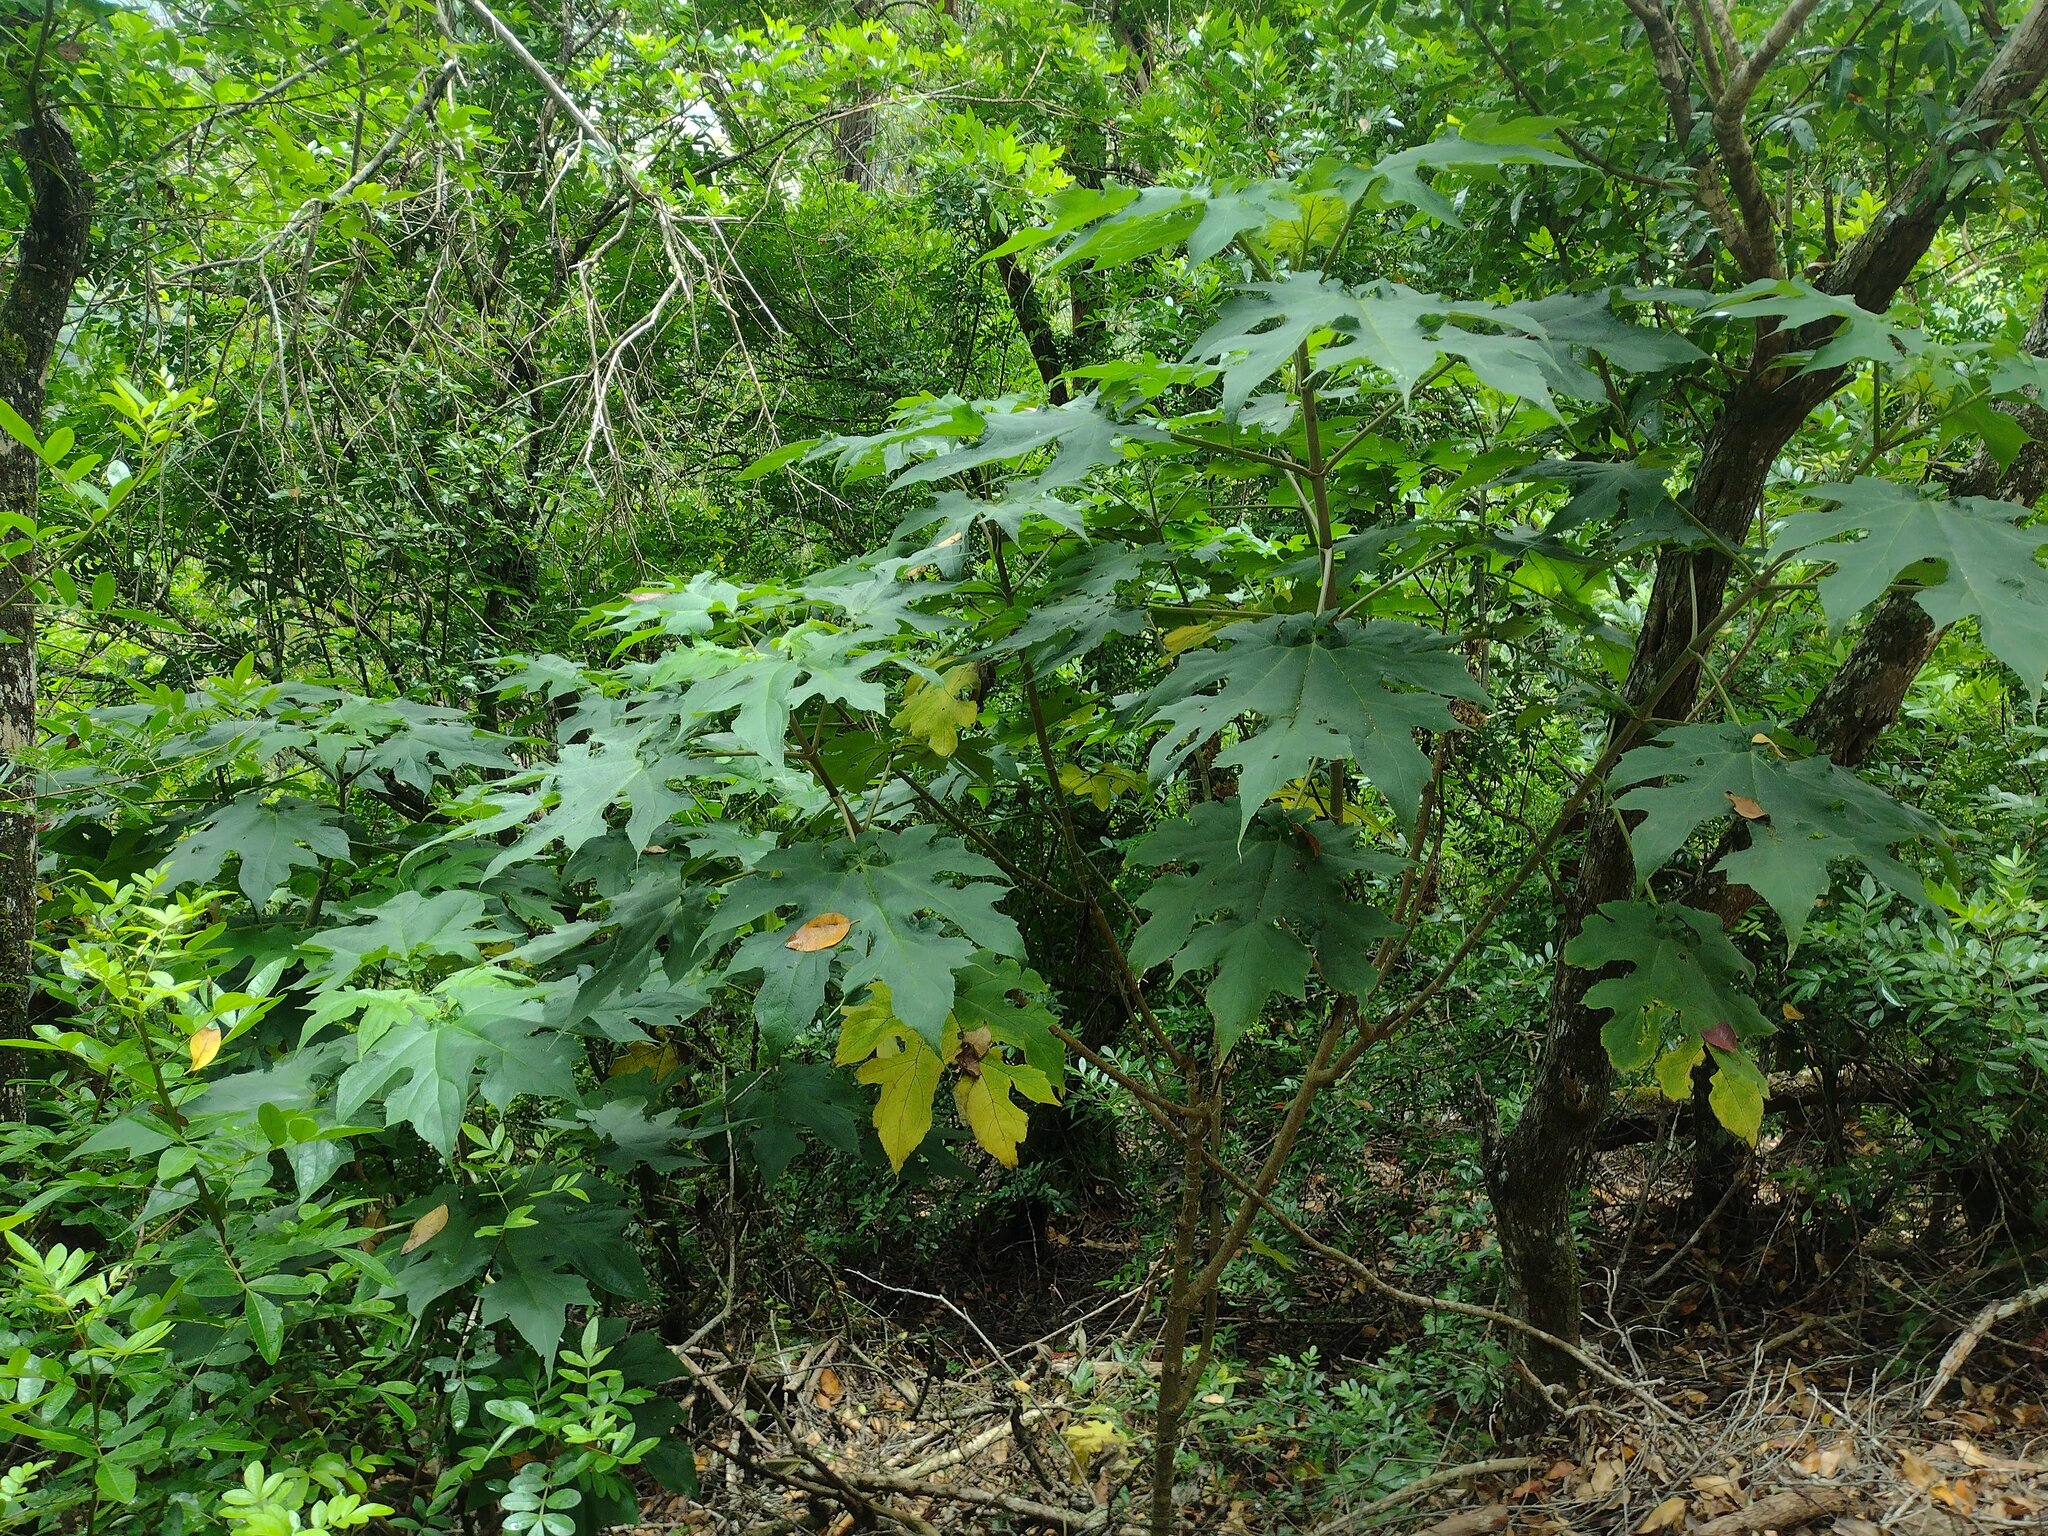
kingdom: Plantae
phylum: Tracheophyta
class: Magnoliopsida
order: Asterales
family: Asteraceae
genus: Montanoa
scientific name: Montanoa hibiscifolia
